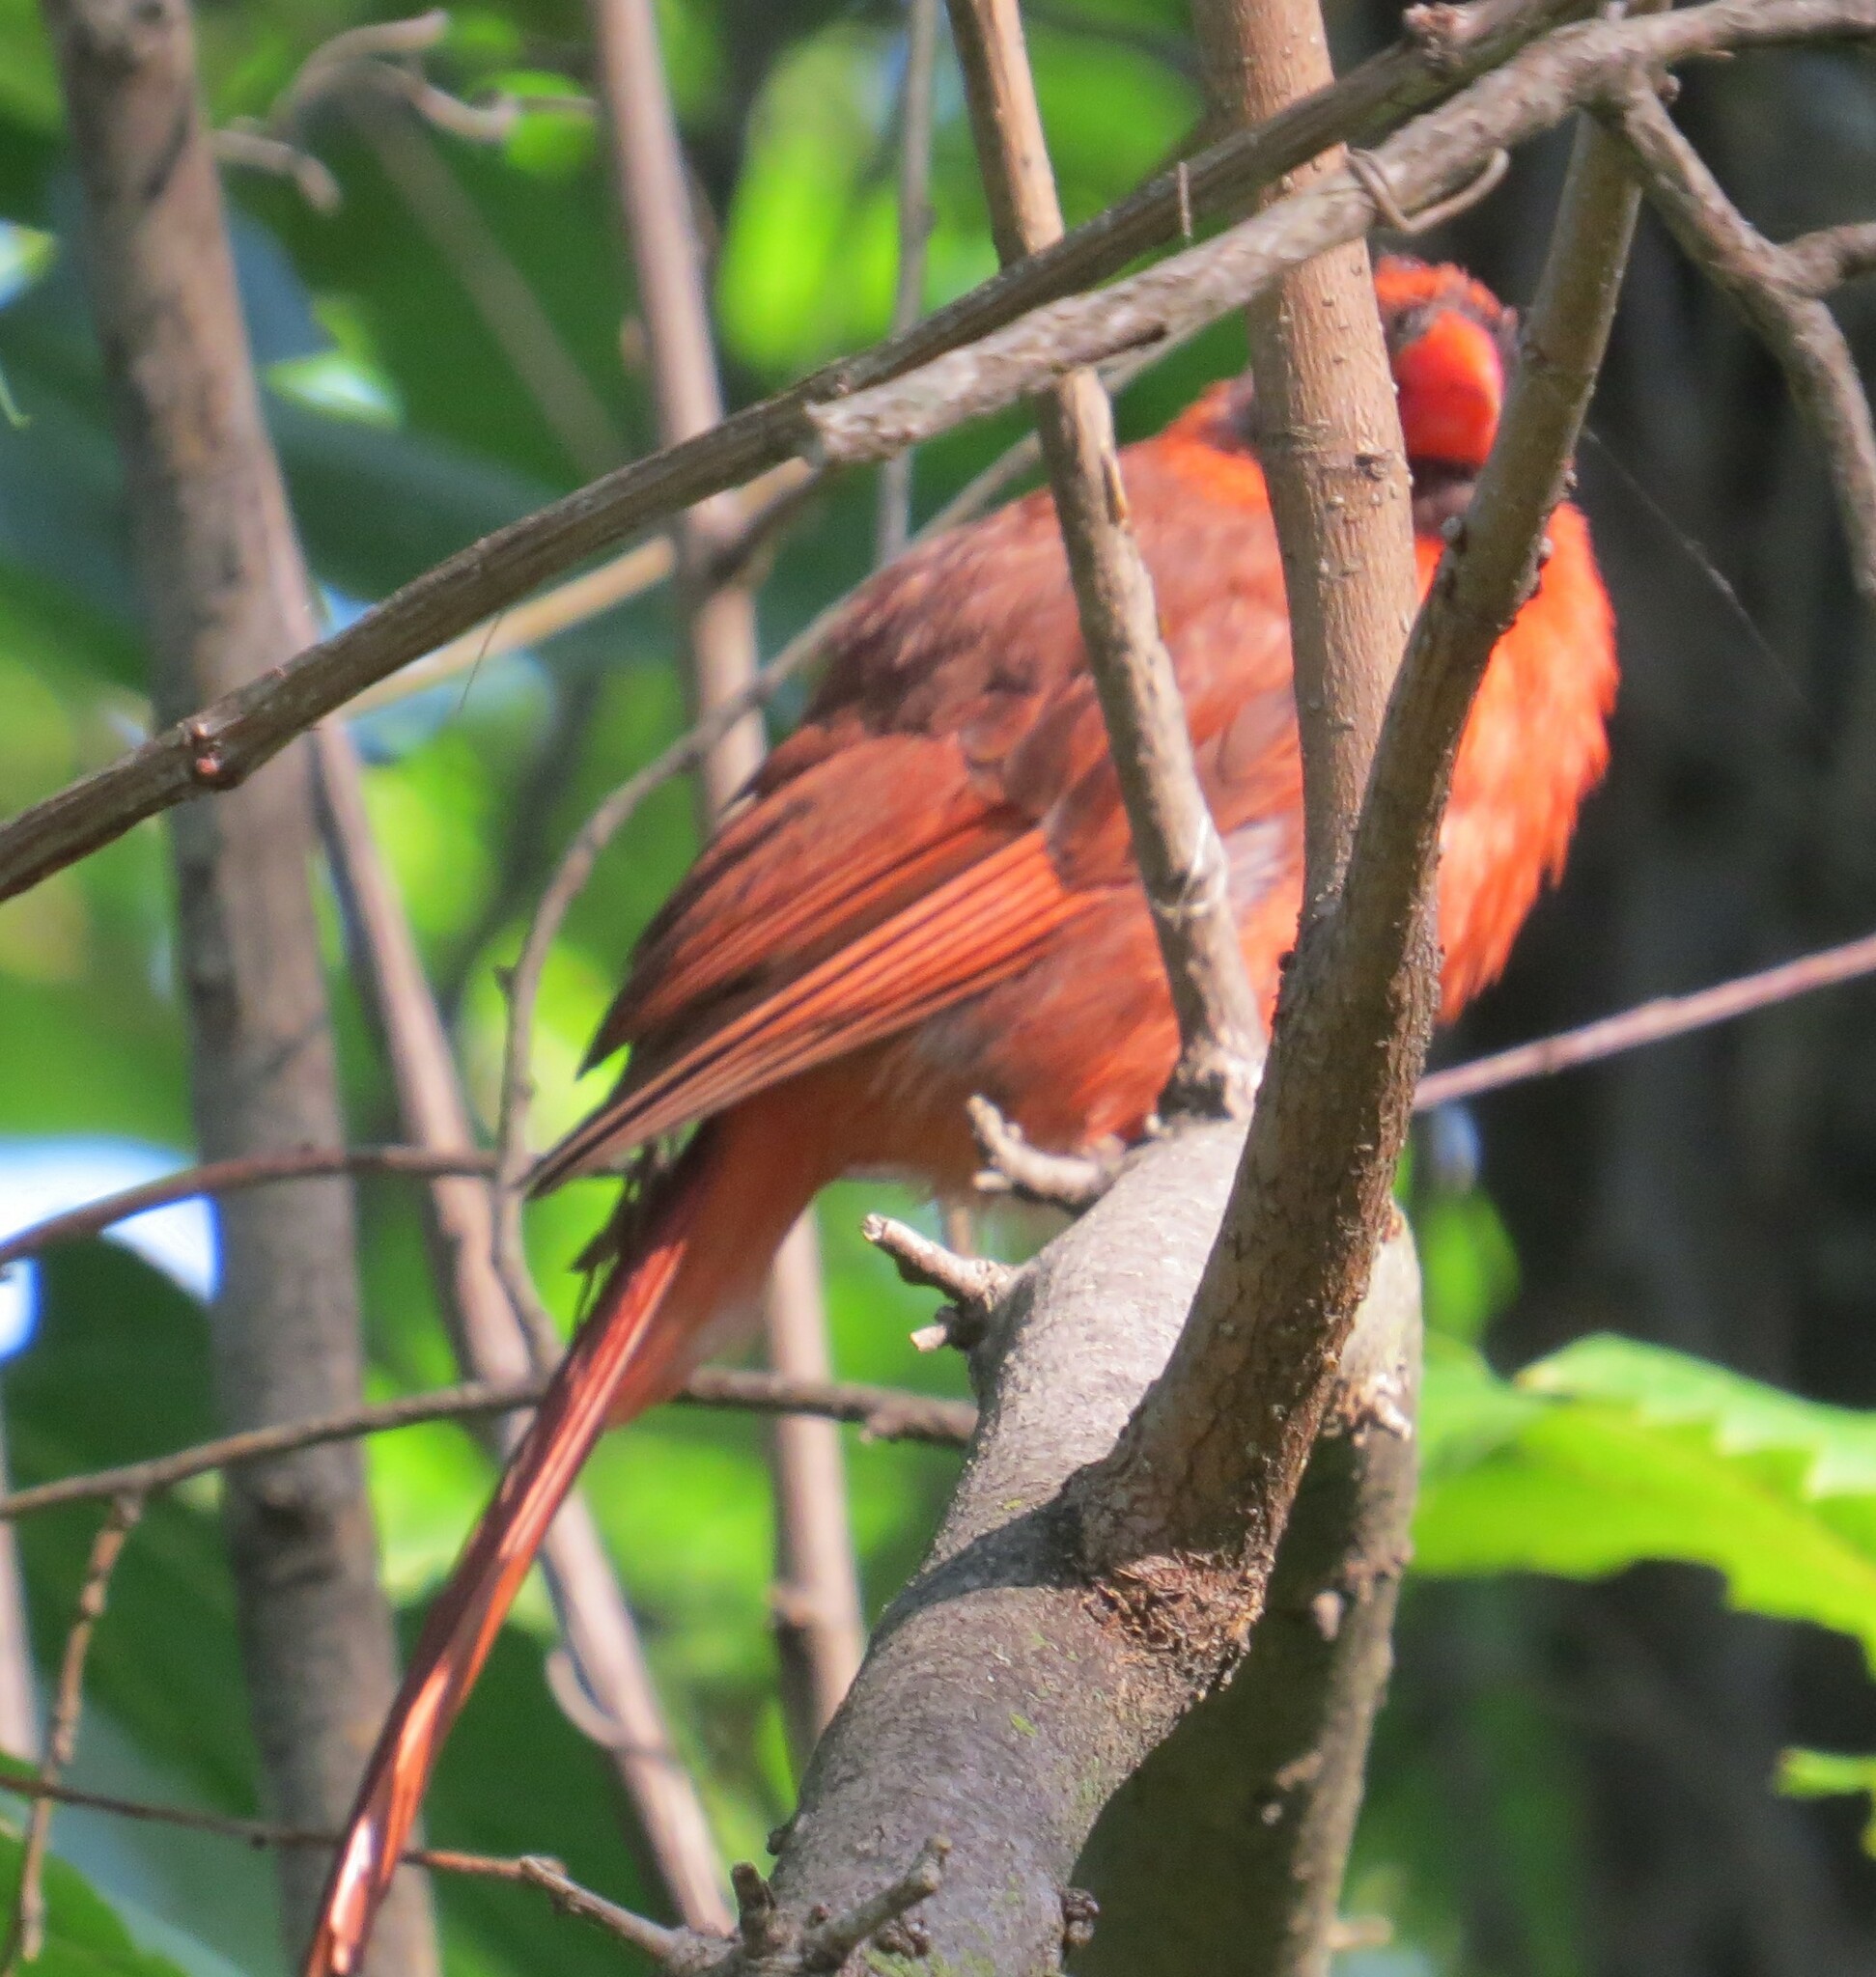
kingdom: Animalia
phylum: Chordata
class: Aves
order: Passeriformes
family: Cardinalidae
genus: Cardinalis
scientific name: Cardinalis cardinalis
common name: Northern cardinal
